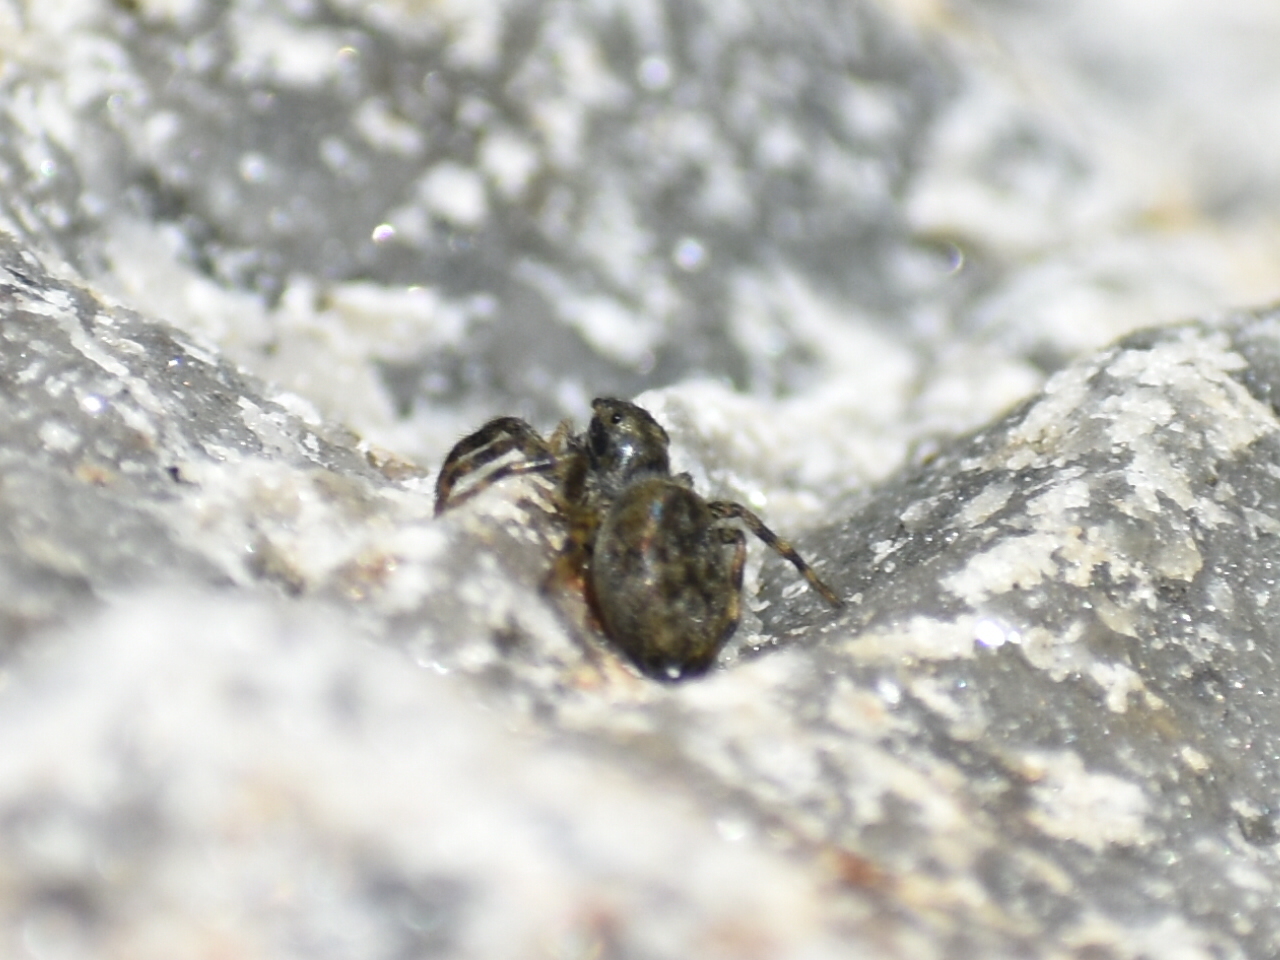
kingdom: Animalia
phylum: Arthropoda
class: Arachnida
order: Araneae
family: Salticidae
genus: Hakka
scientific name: Hakka himeshimensis
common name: Jumping spider
